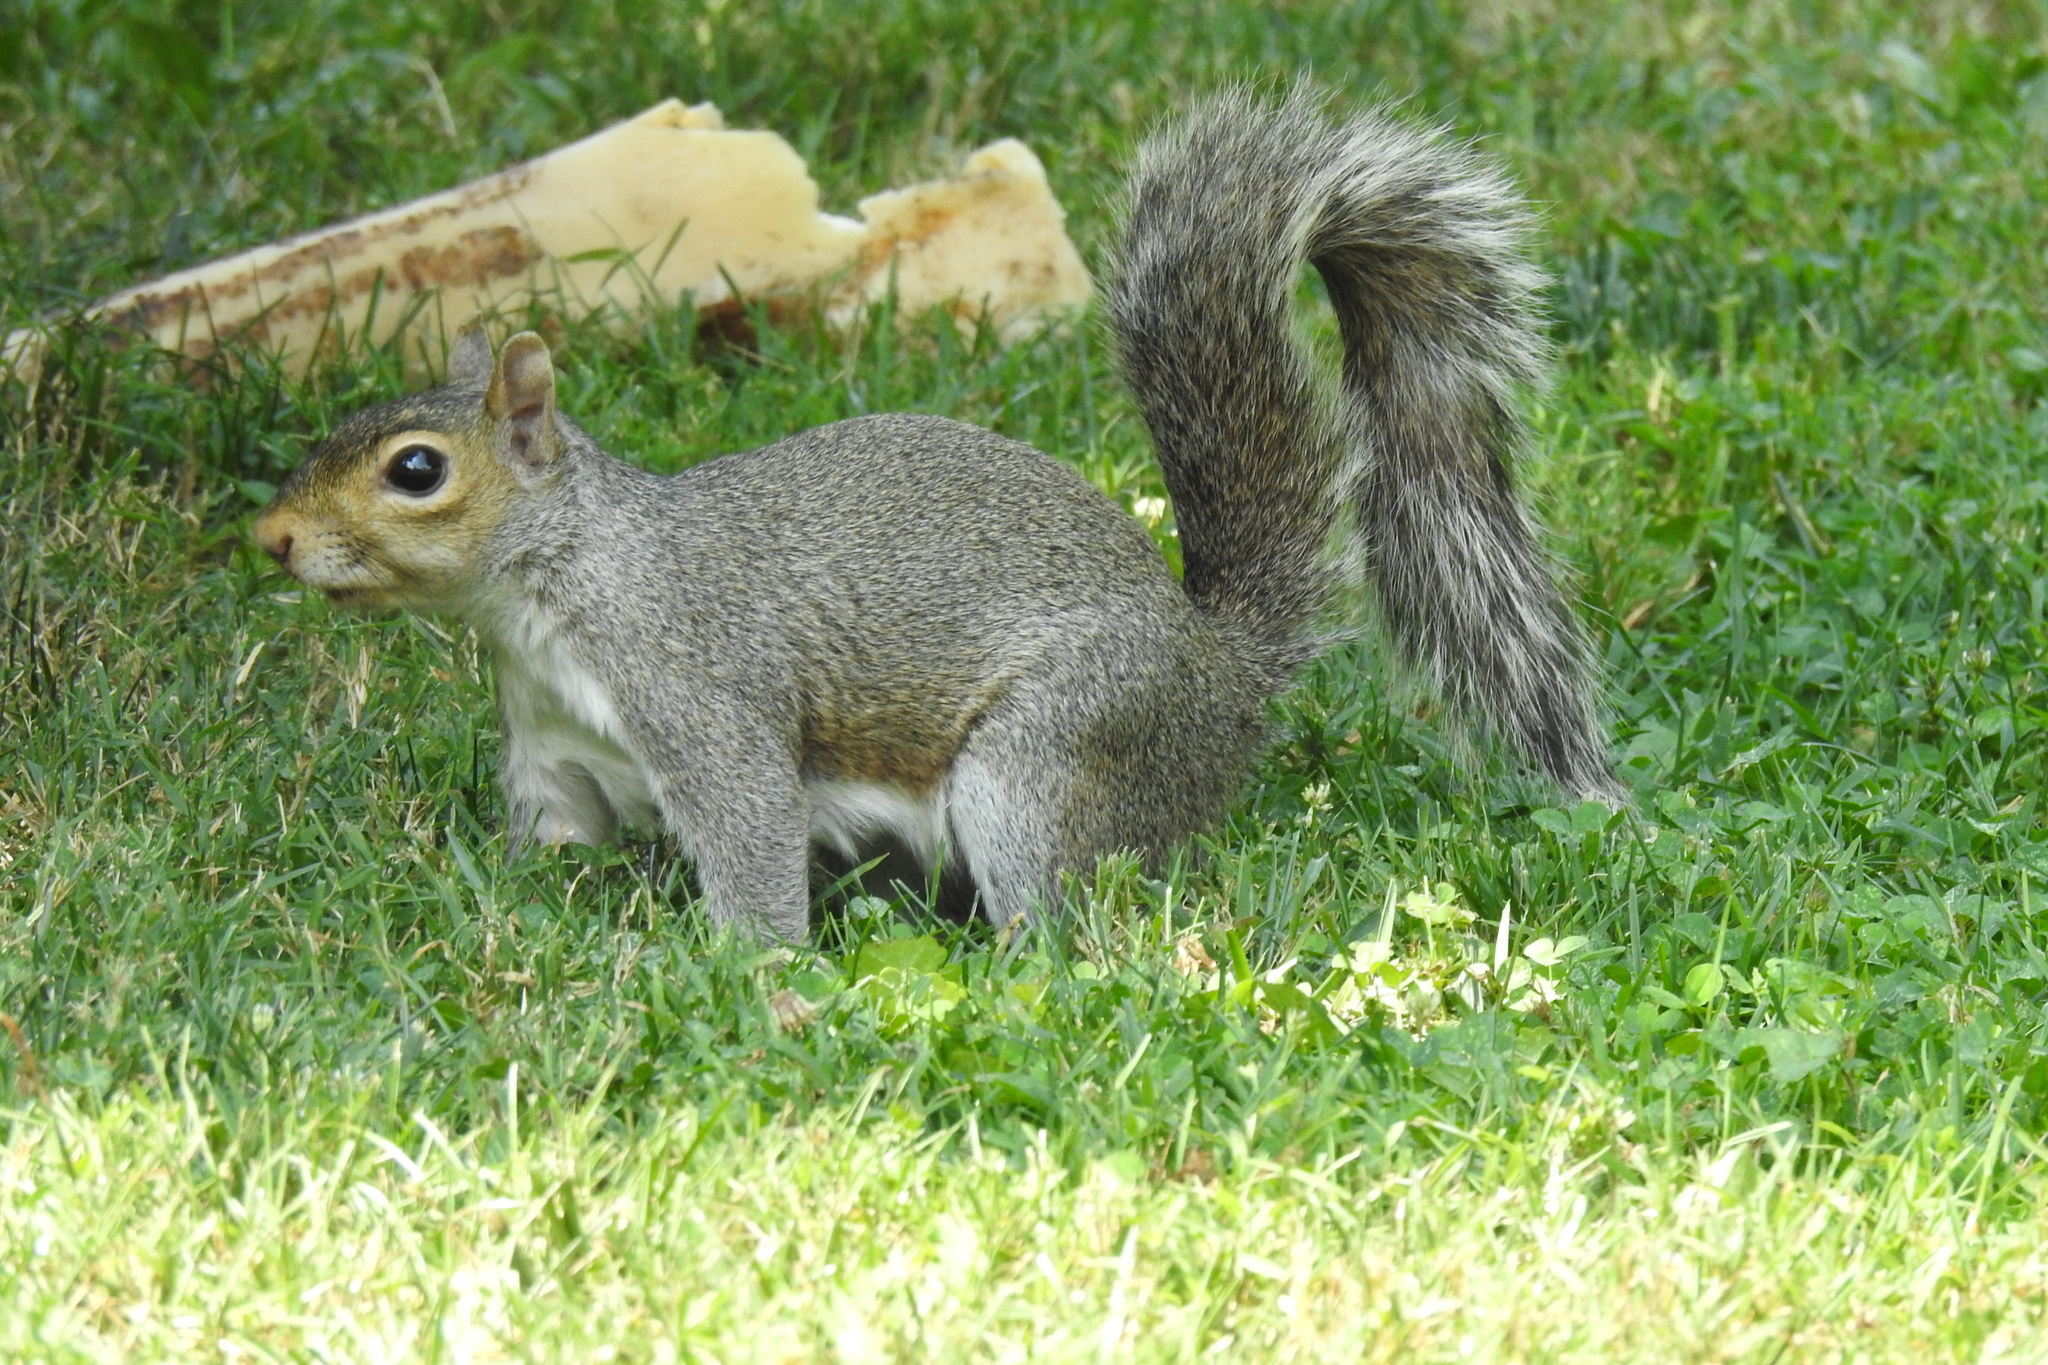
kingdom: Animalia
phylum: Chordata
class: Mammalia
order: Rodentia
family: Sciuridae
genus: Sciurus
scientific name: Sciurus carolinensis
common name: Eastern gray squirrel
